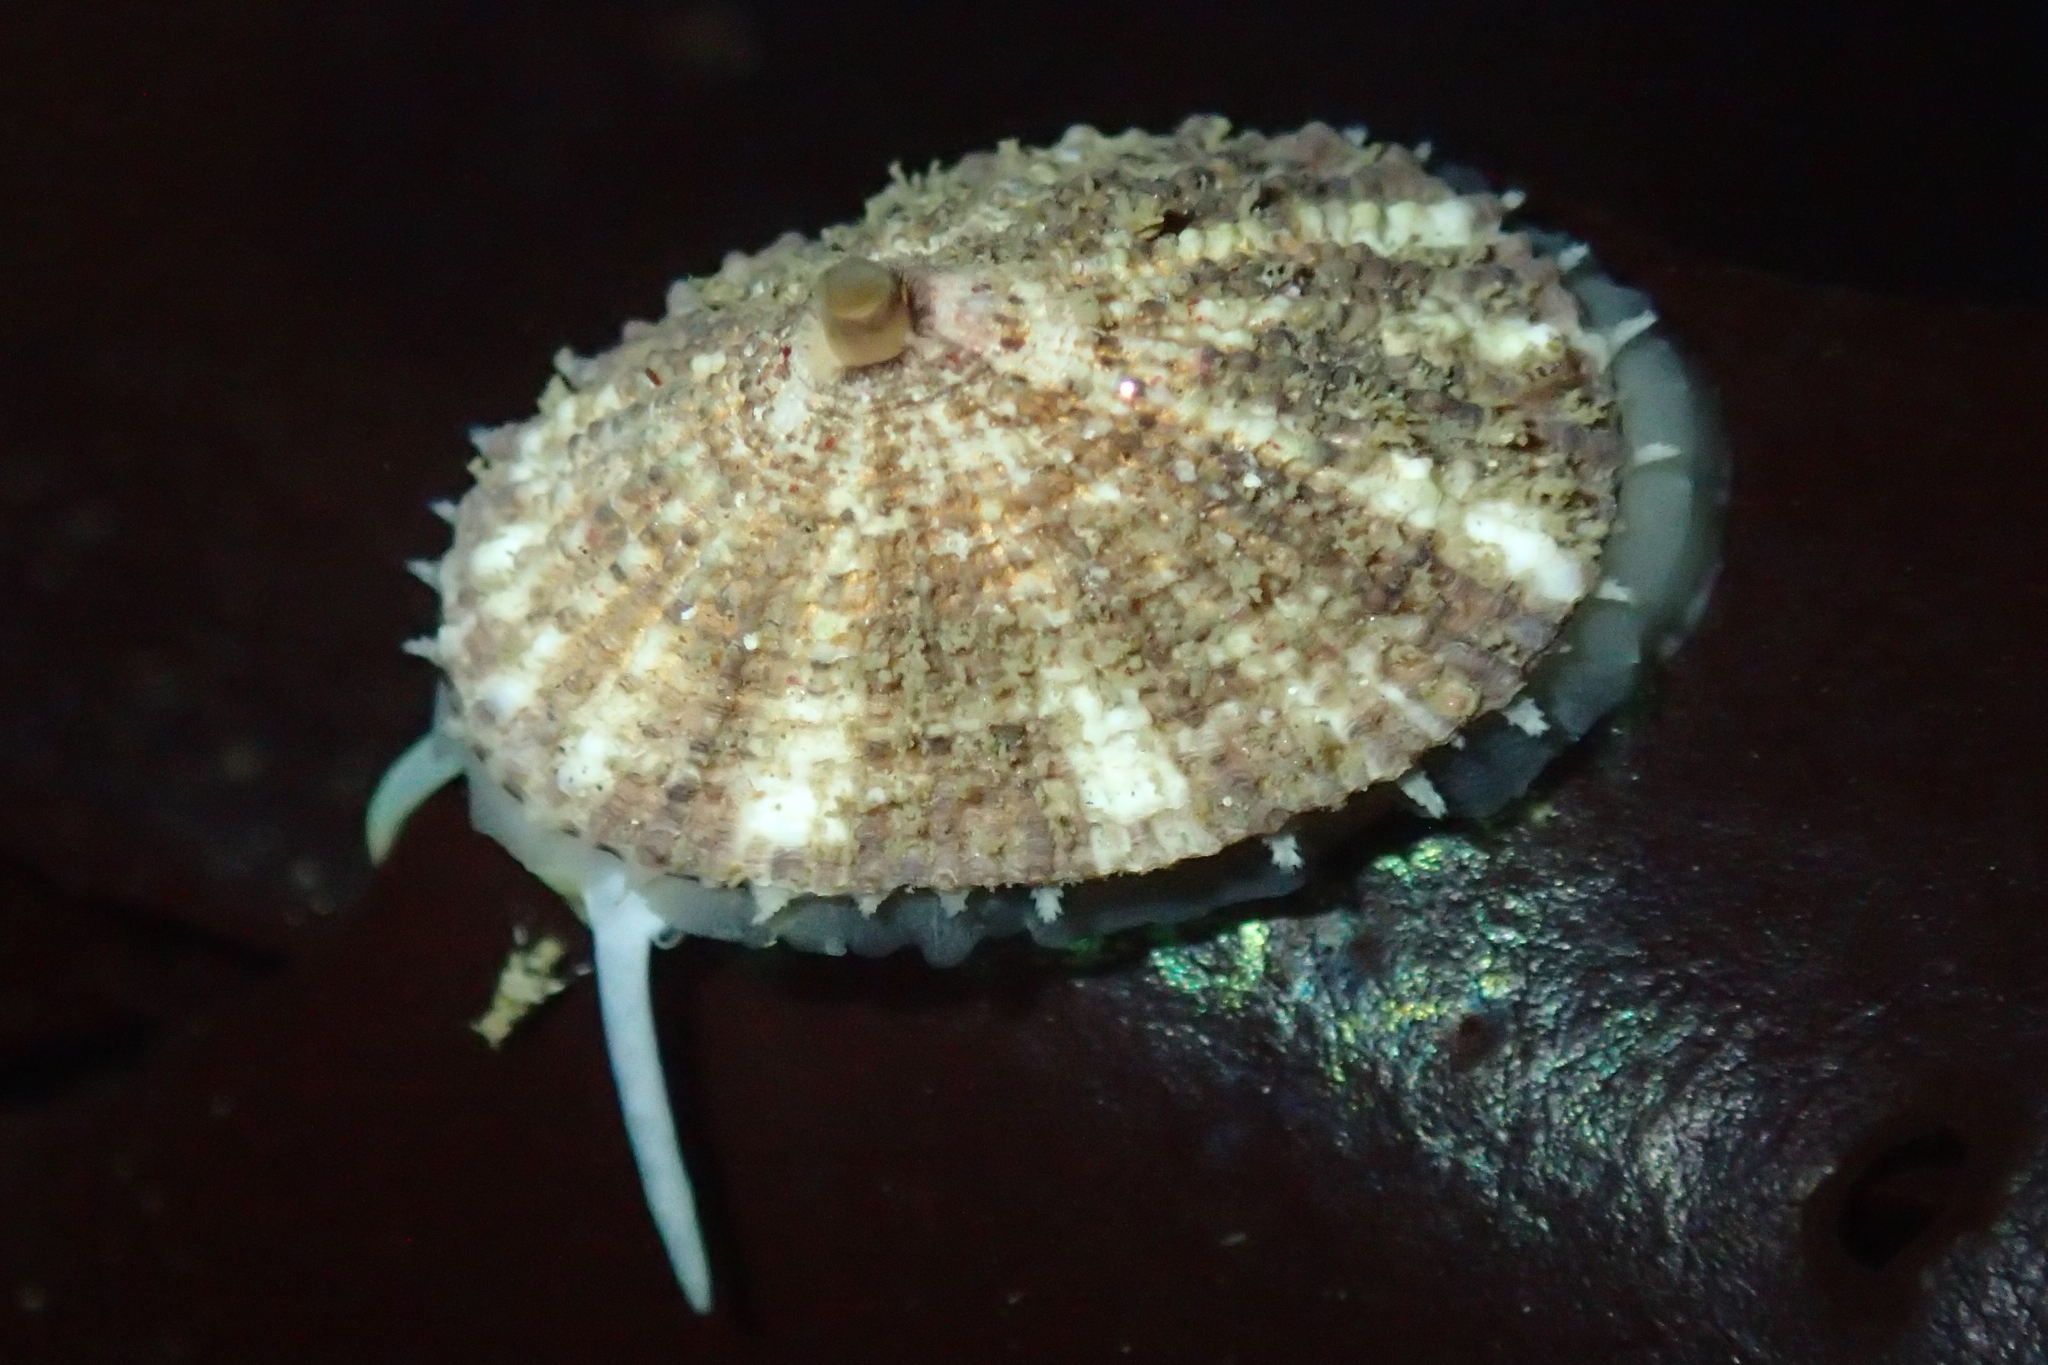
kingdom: Animalia
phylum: Mollusca
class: Gastropoda
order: Lepetellida
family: Fissurellidae
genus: Diodora
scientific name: Diodora aspera
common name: Rough keyhole limpet
